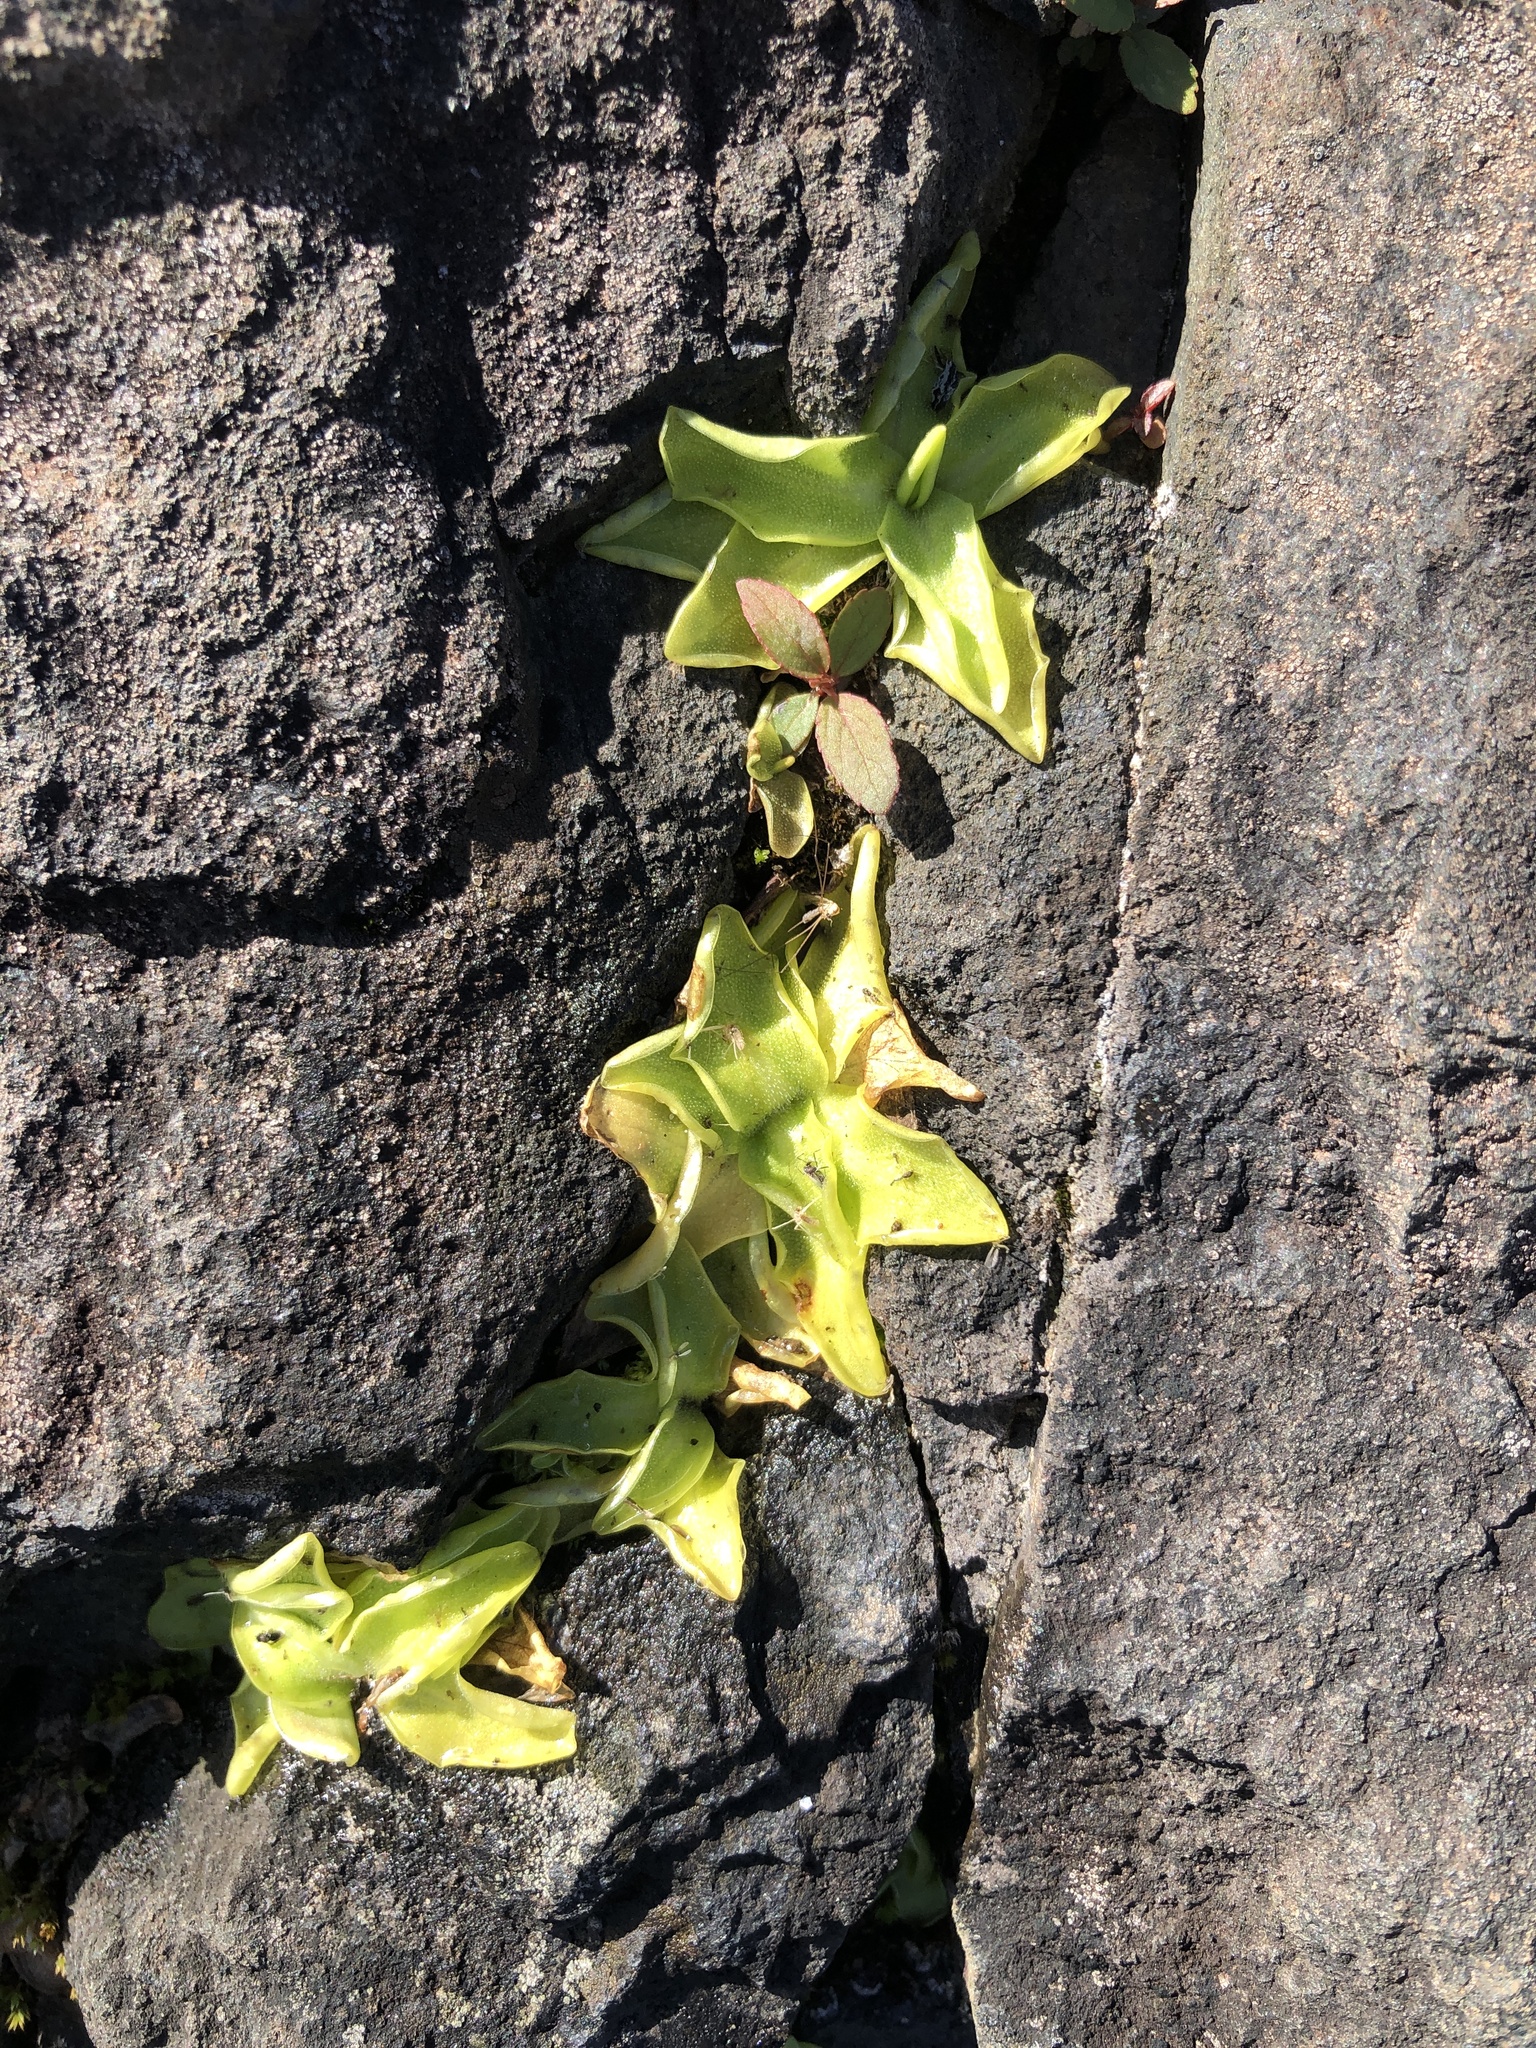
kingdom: Plantae
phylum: Tracheophyta
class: Magnoliopsida
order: Lamiales
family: Lentibulariaceae
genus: Pinguicula
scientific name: Pinguicula vulgaris
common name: Common butterwort
